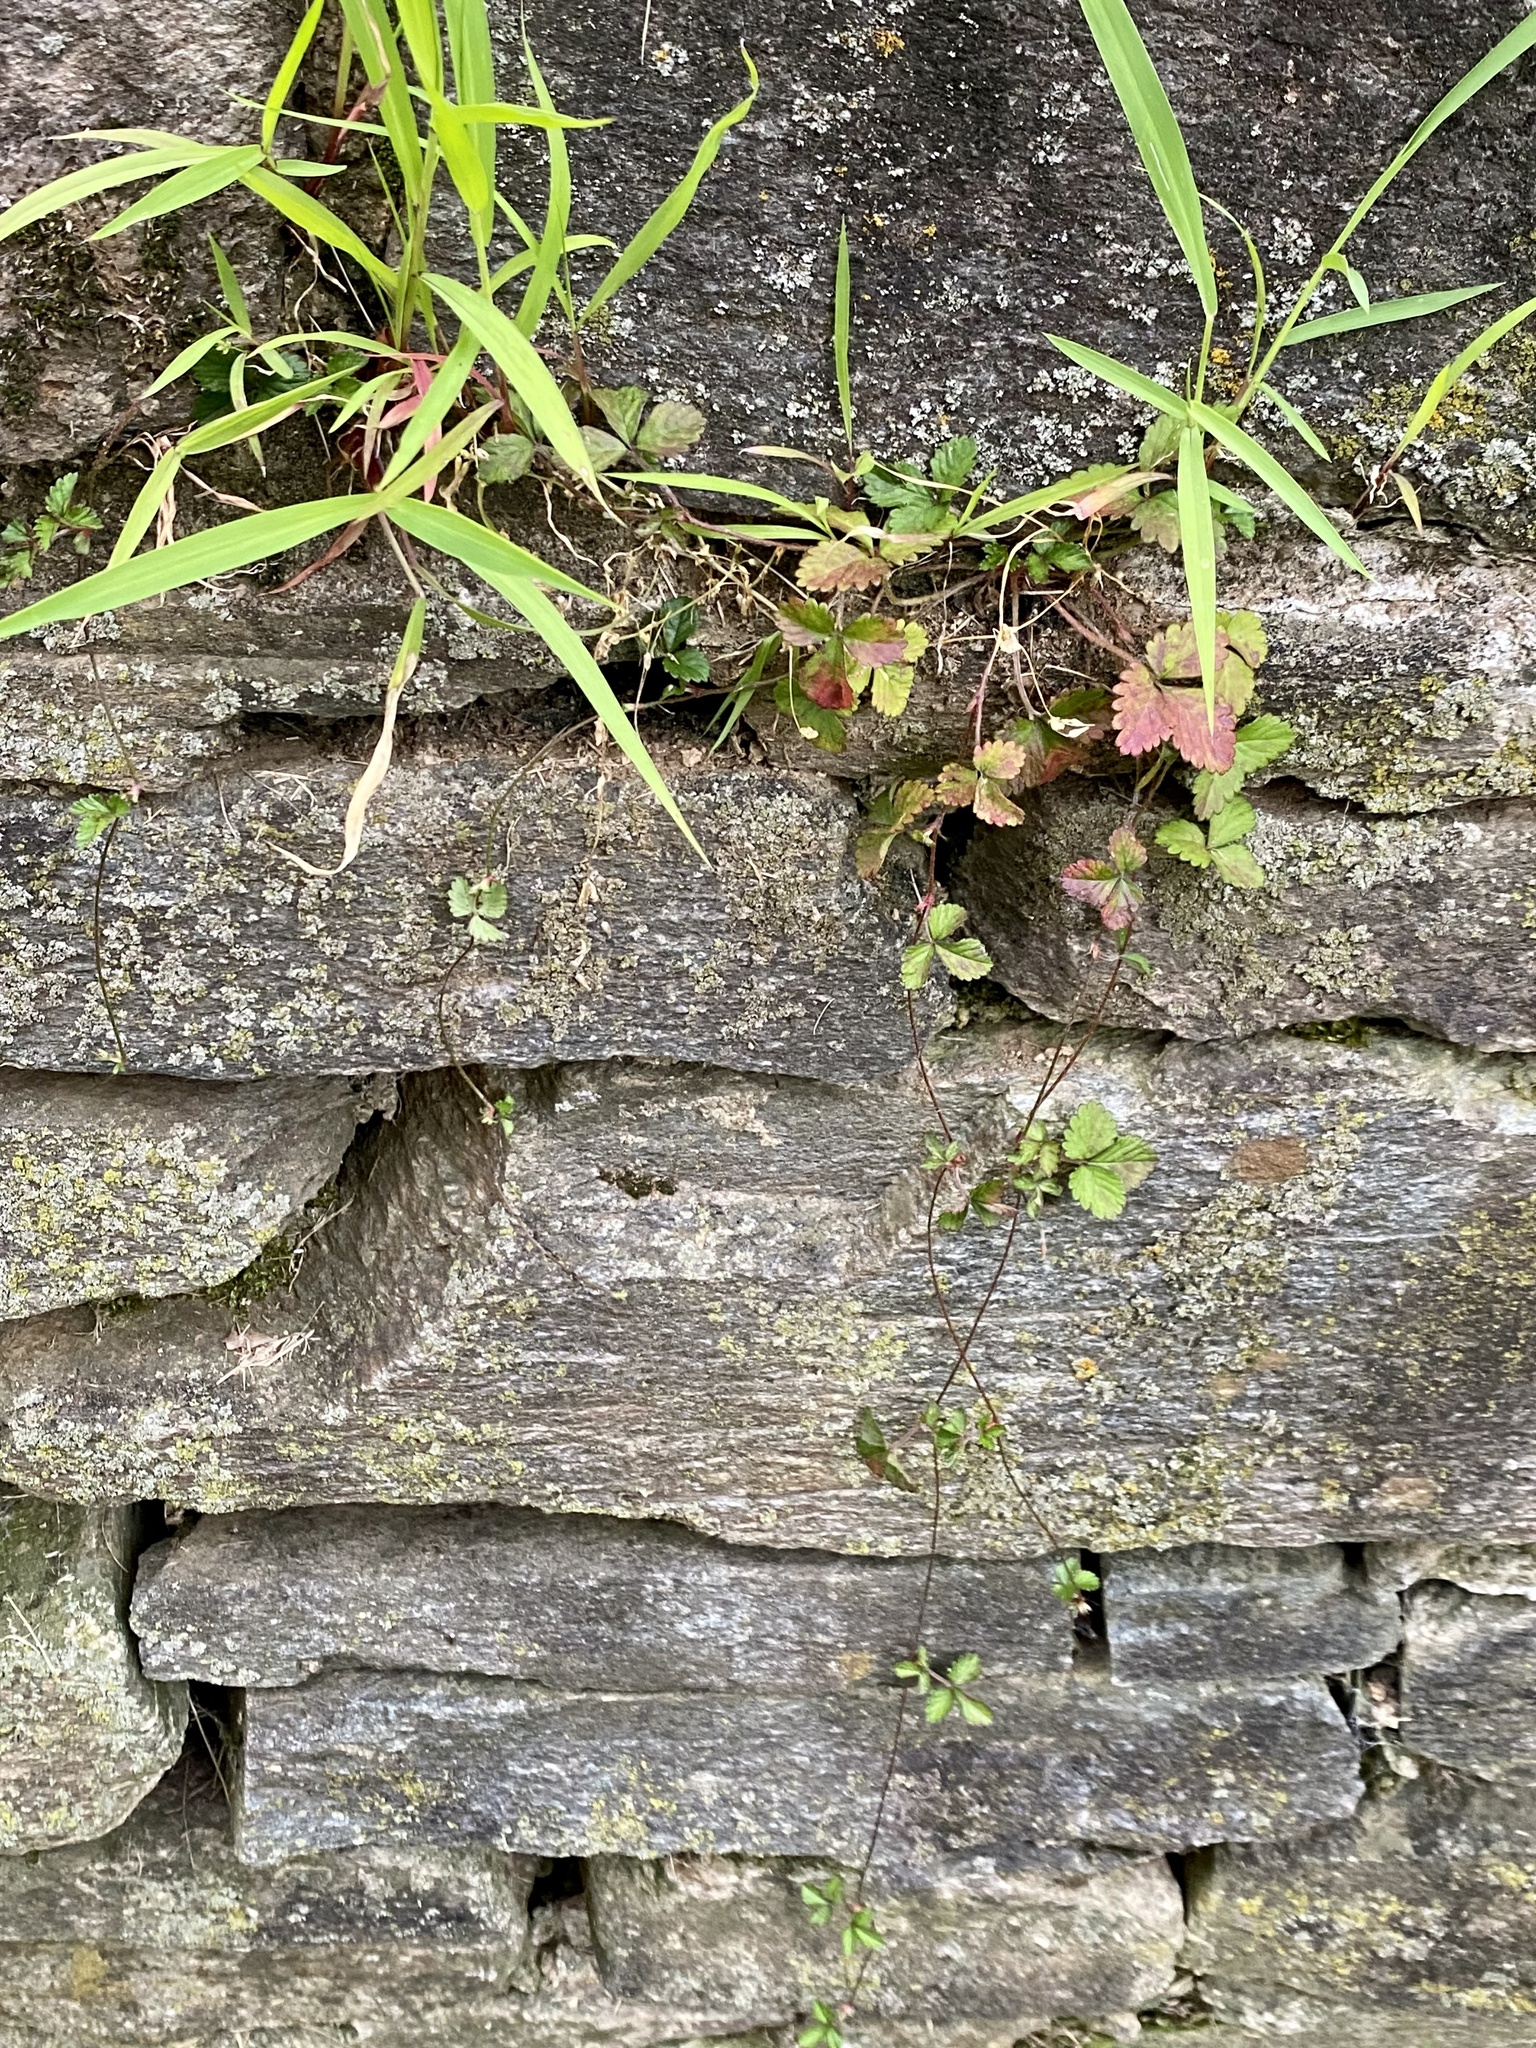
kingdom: Plantae
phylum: Tracheophyta
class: Magnoliopsida
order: Rosales
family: Rosaceae
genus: Potentilla
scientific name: Potentilla indica
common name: Yellow-flowered strawberry
